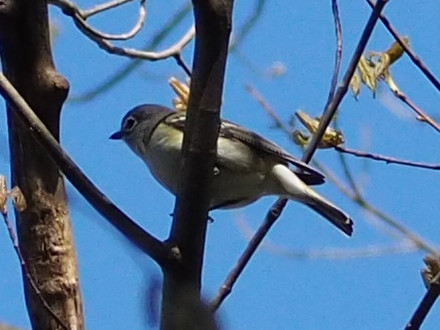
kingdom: Animalia
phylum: Chordata
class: Aves
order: Passeriformes
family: Vireonidae
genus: Vireo
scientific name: Vireo solitarius
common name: Blue-headed vireo
